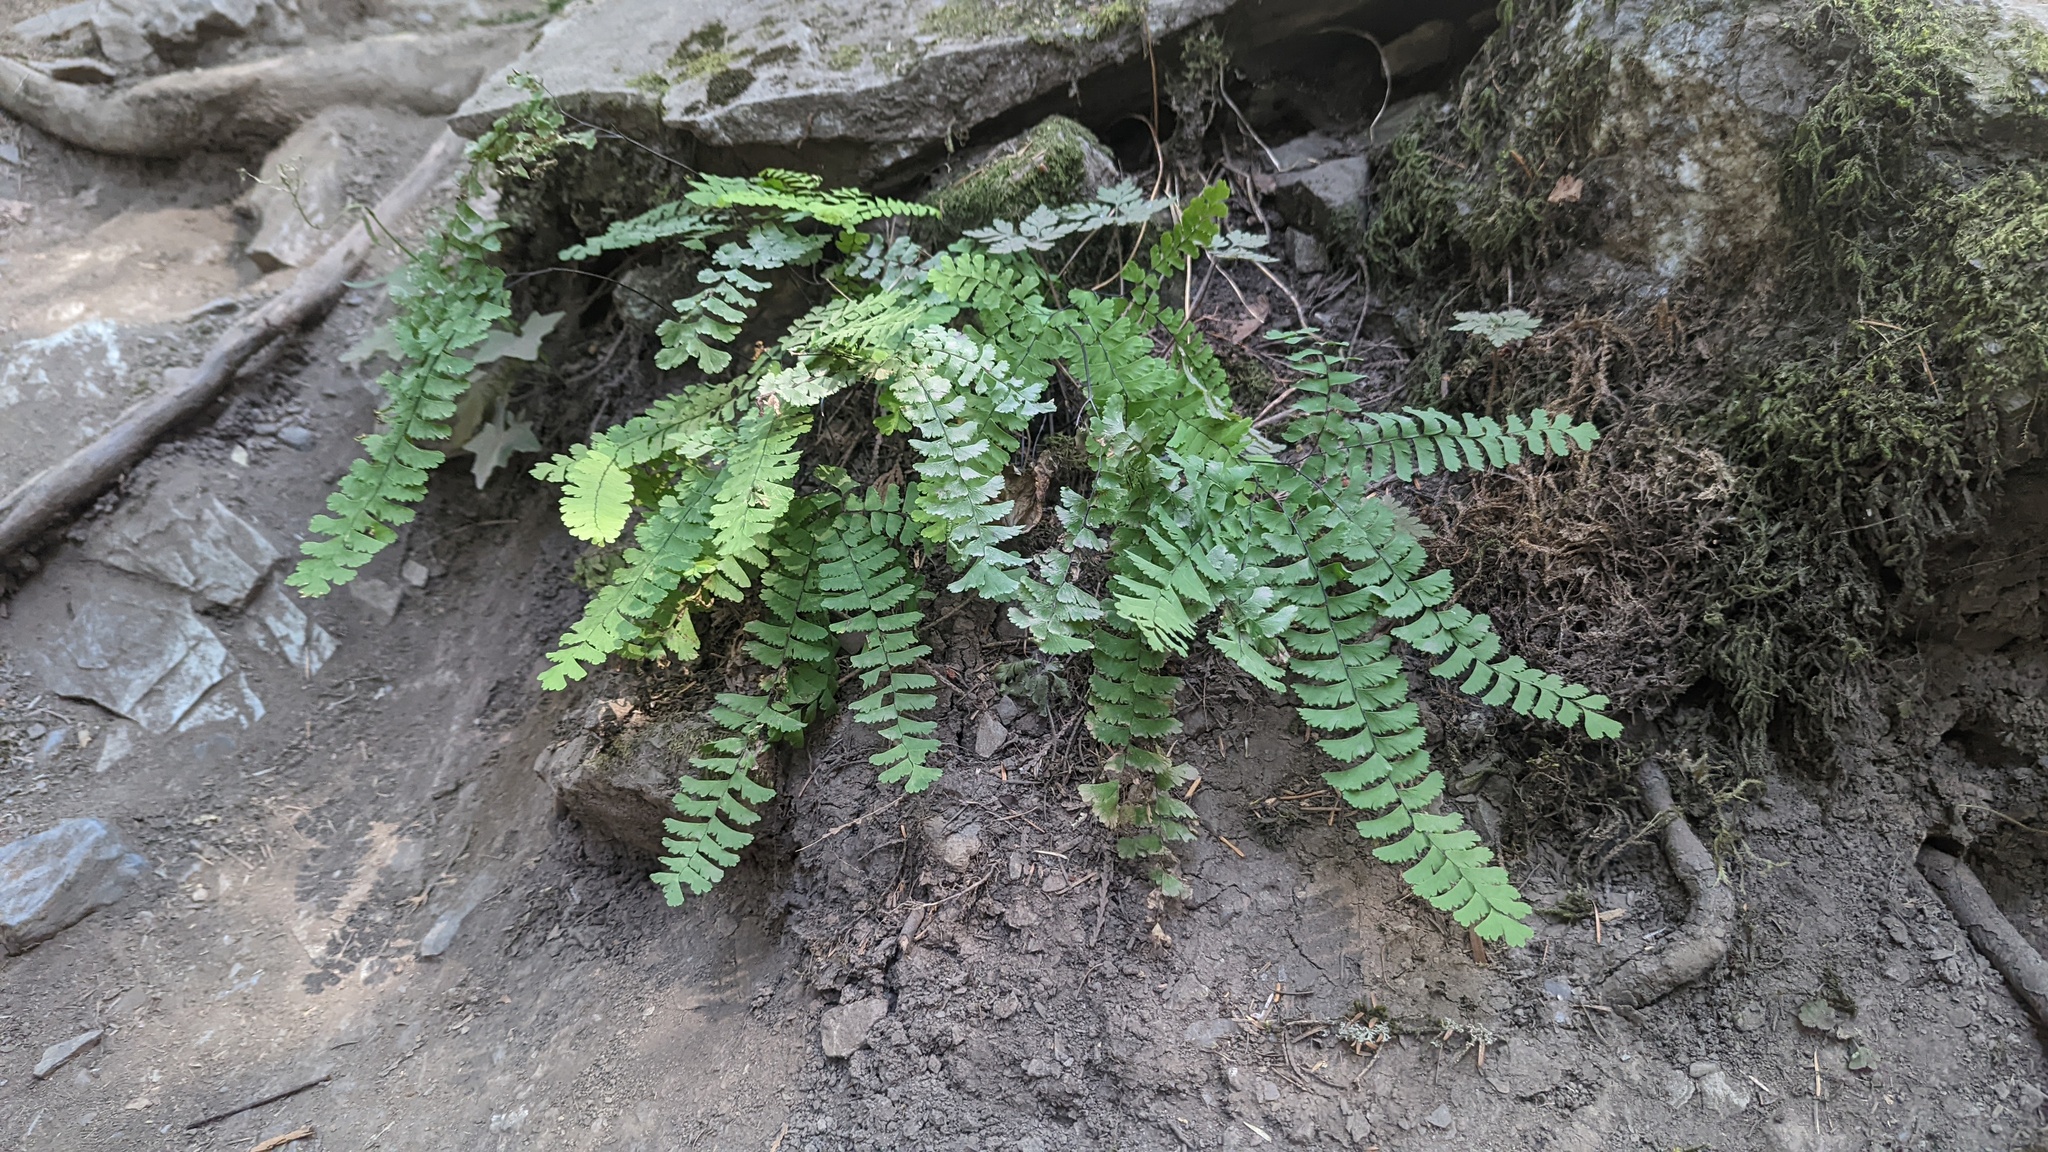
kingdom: Plantae
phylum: Tracheophyta
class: Polypodiopsida
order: Polypodiales
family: Pteridaceae
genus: Adiantum
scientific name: Adiantum aleuticum
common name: Aleutian maidenhair fern
